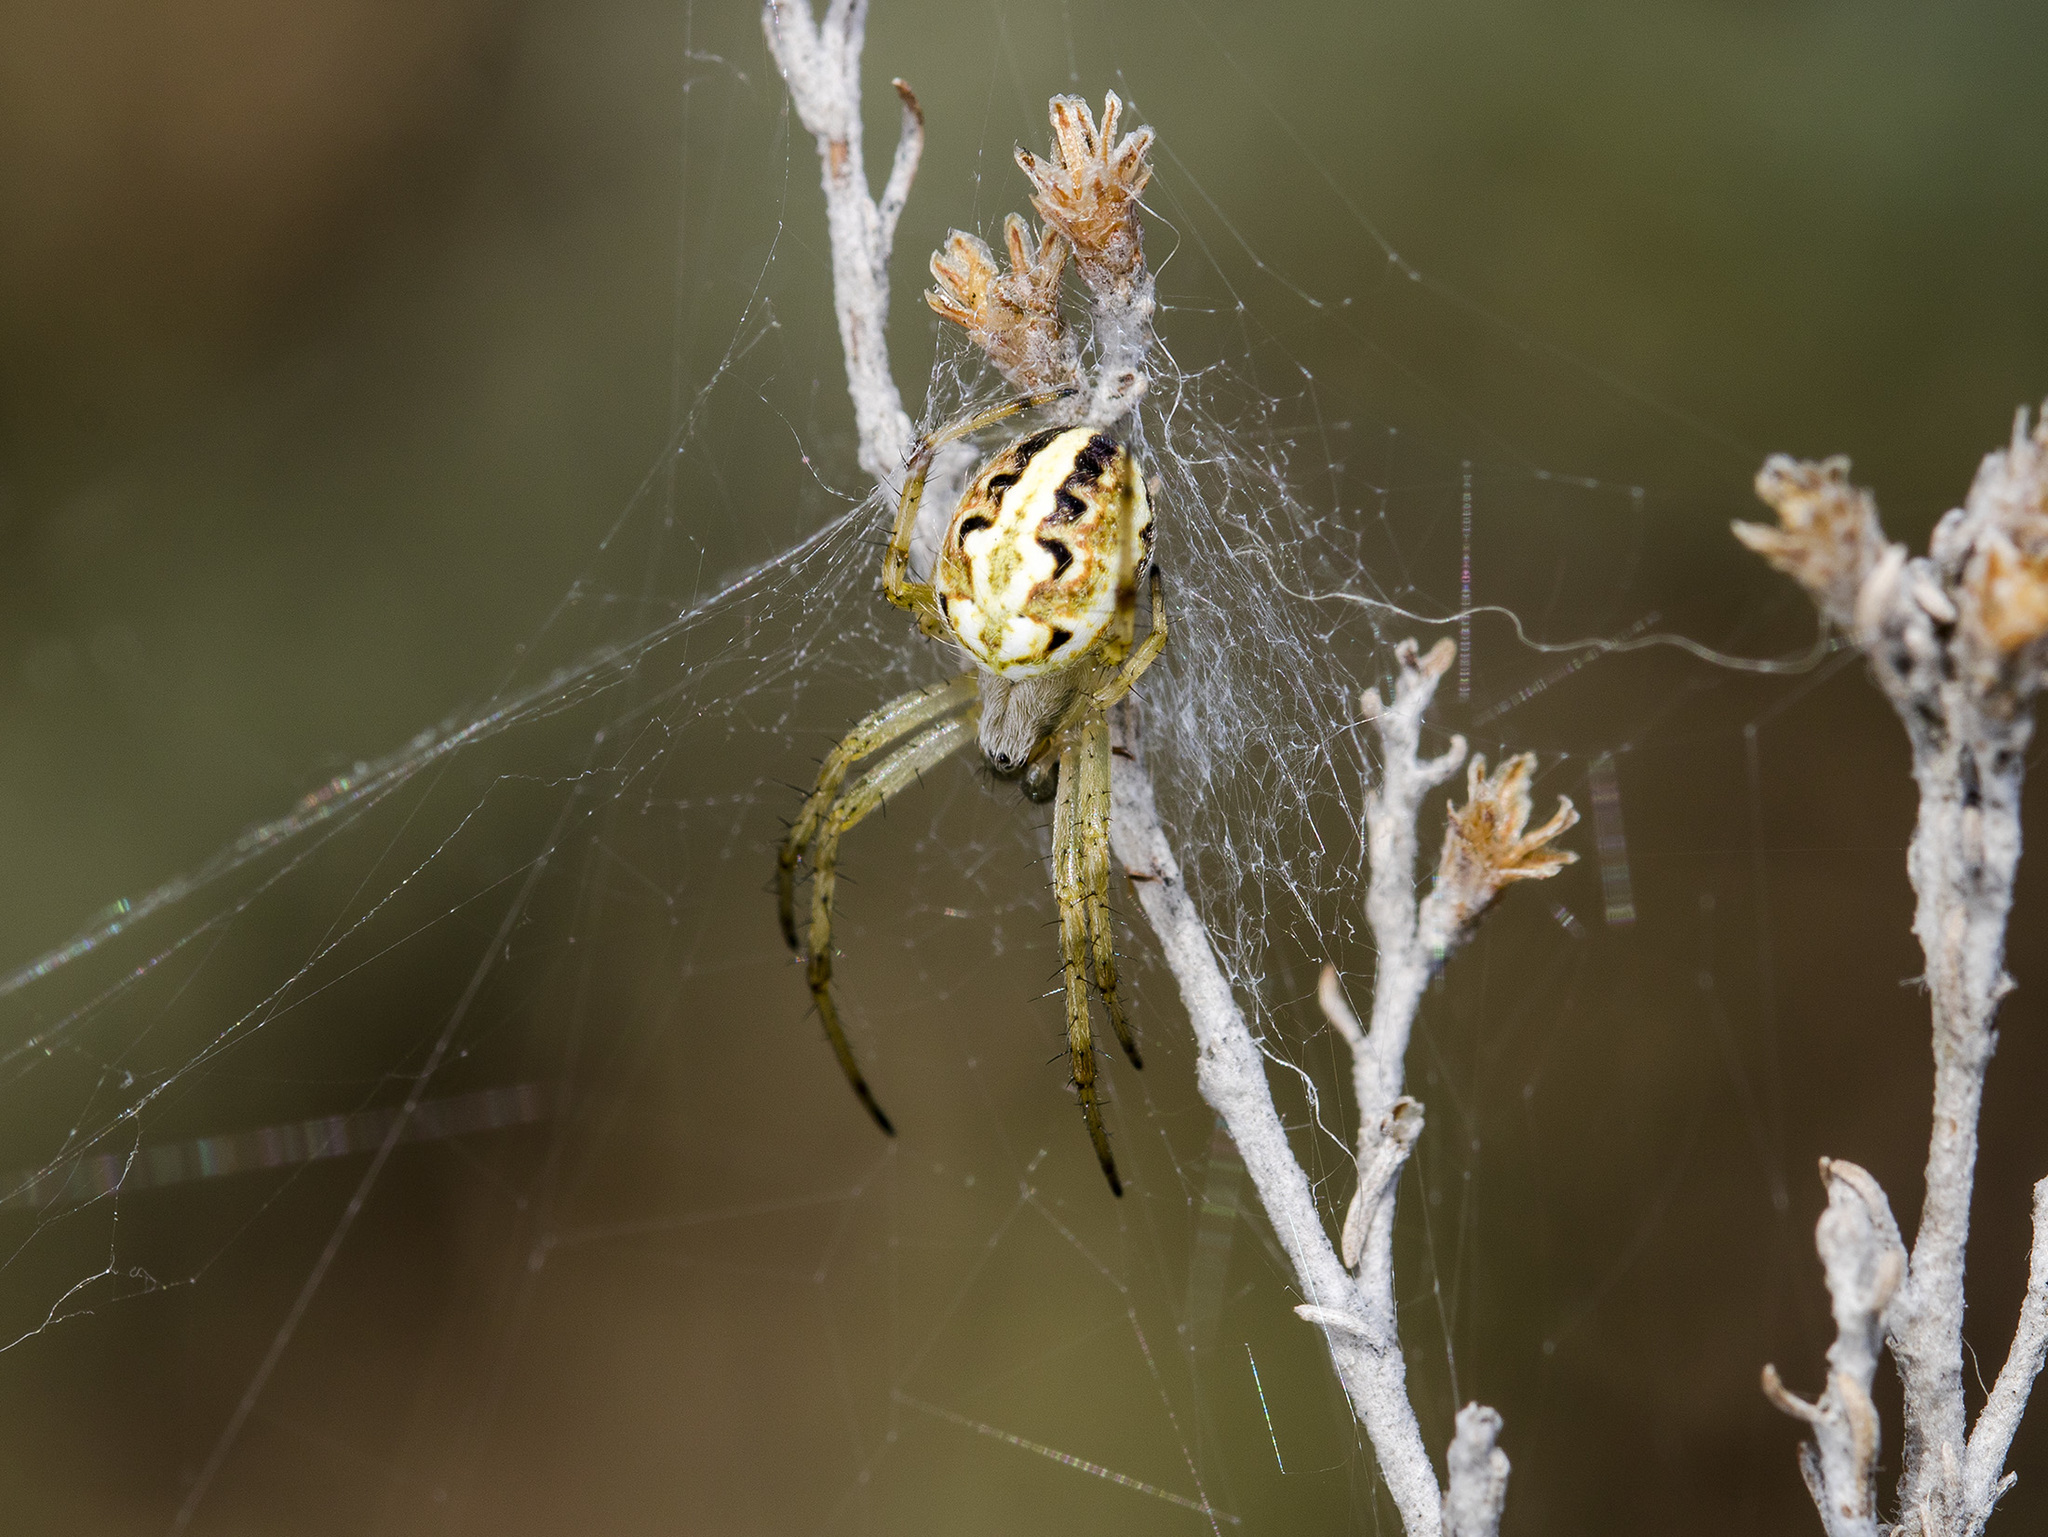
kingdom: Animalia
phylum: Arthropoda
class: Arachnida
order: Araneae
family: Araneidae
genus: Neoscona
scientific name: Neoscona adianta
